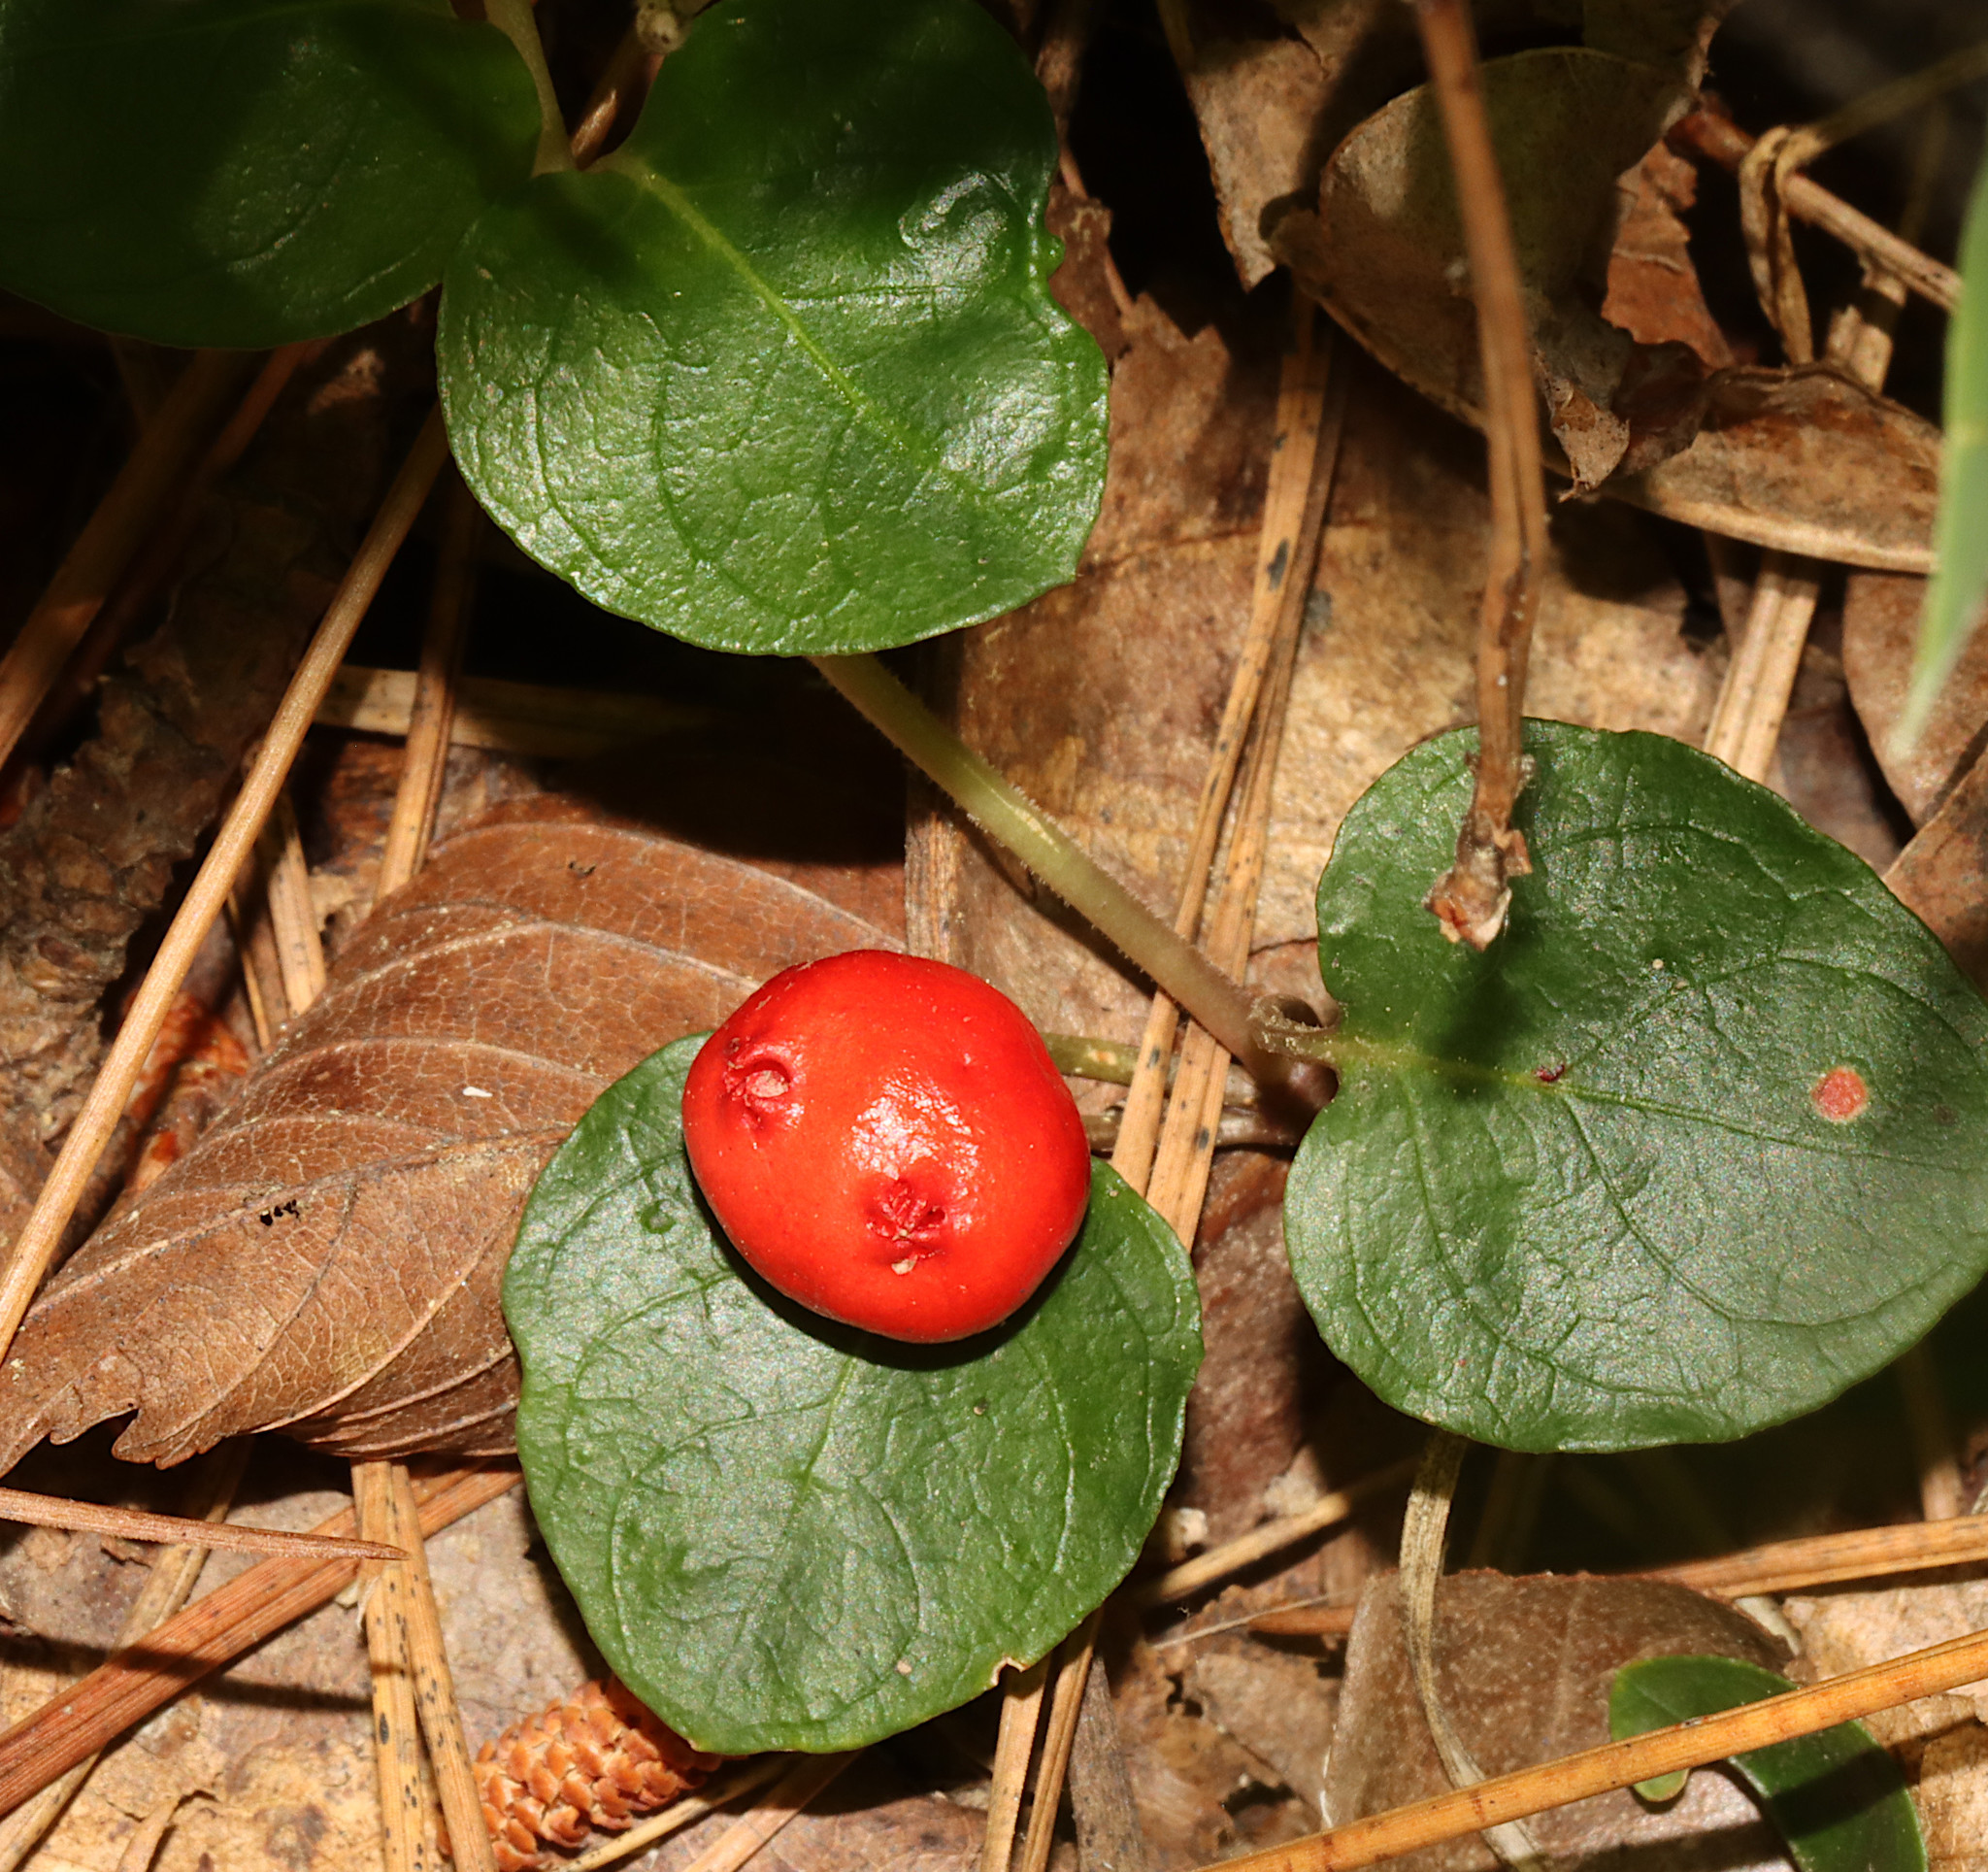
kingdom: Plantae
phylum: Tracheophyta
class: Magnoliopsida
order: Gentianales
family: Rubiaceae
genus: Mitchella
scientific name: Mitchella repens
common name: Partridge-berry
